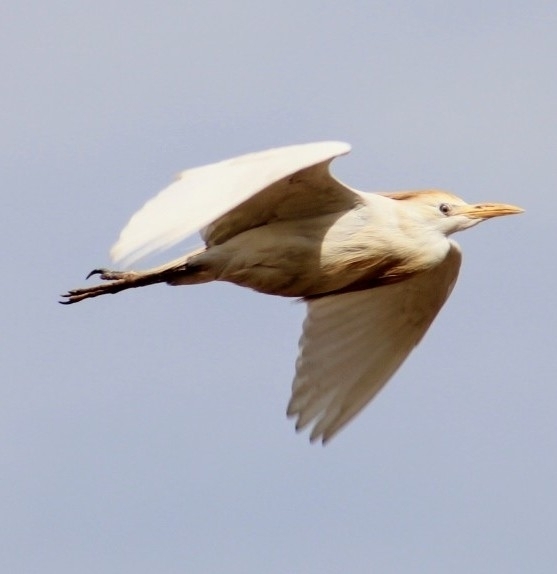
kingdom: Animalia
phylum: Chordata
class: Aves
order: Pelecaniformes
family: Ardeidae
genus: Bubulcus
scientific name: Bubulcus ibis
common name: Cattle egret
